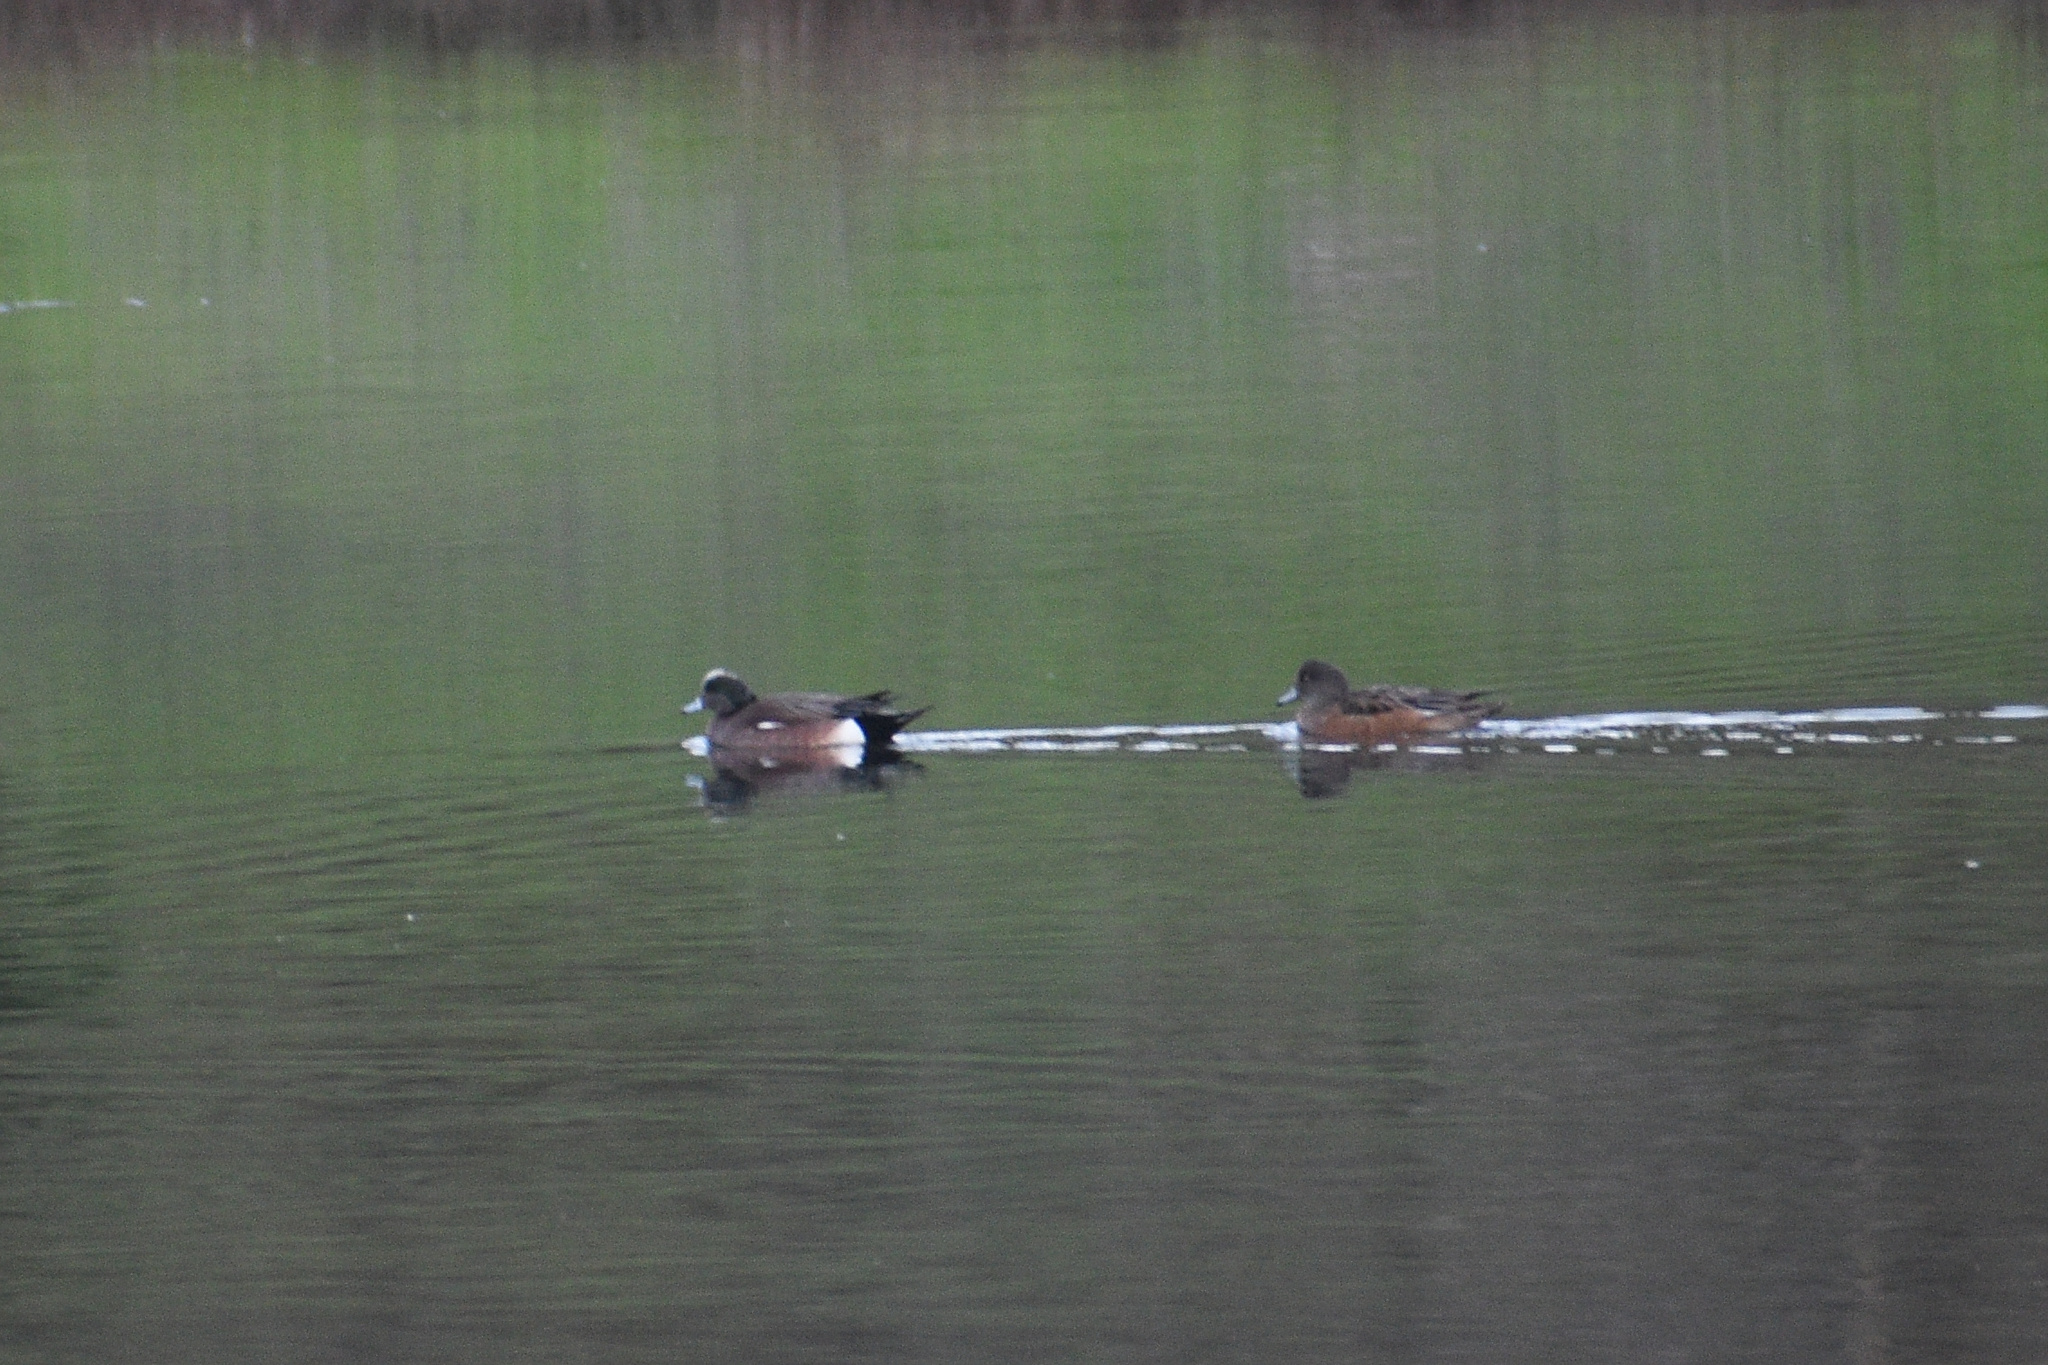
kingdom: Animalia
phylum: Chordata
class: Aves
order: Anseriformes
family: Anatidae
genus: Mareca
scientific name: Mareca americana
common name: American wigeon
